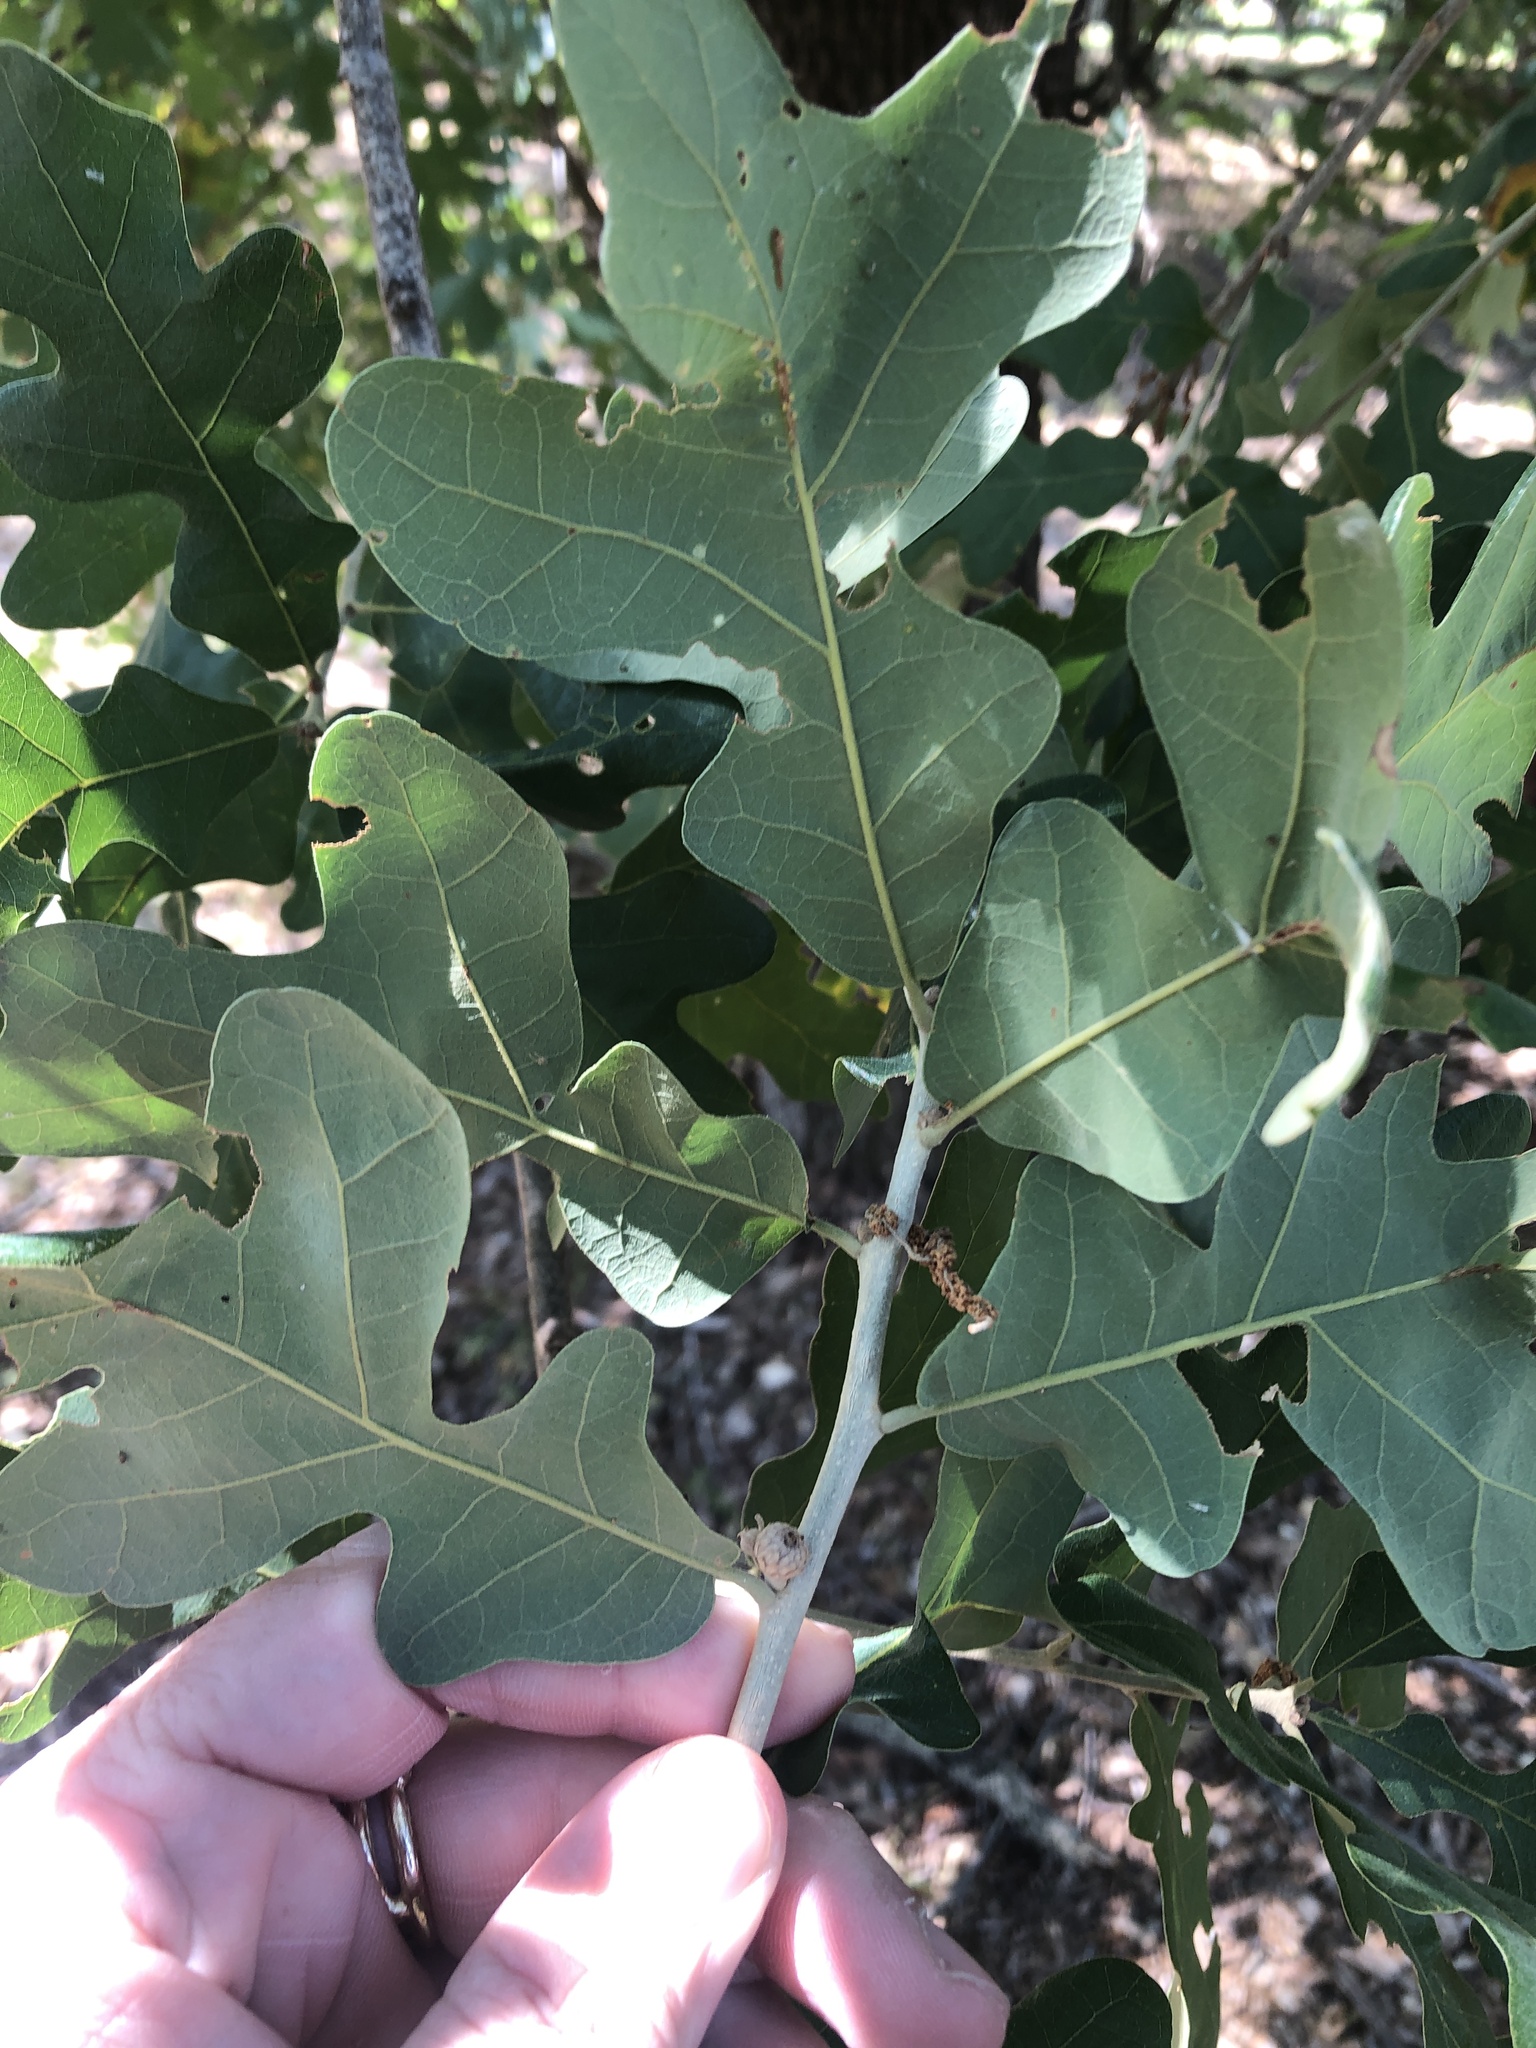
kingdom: Plantae
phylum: Tracheophyta
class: Magnoliopsida
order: Fagales
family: Fagaceae
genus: Quercus
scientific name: Quercus stellata
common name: Post oak
